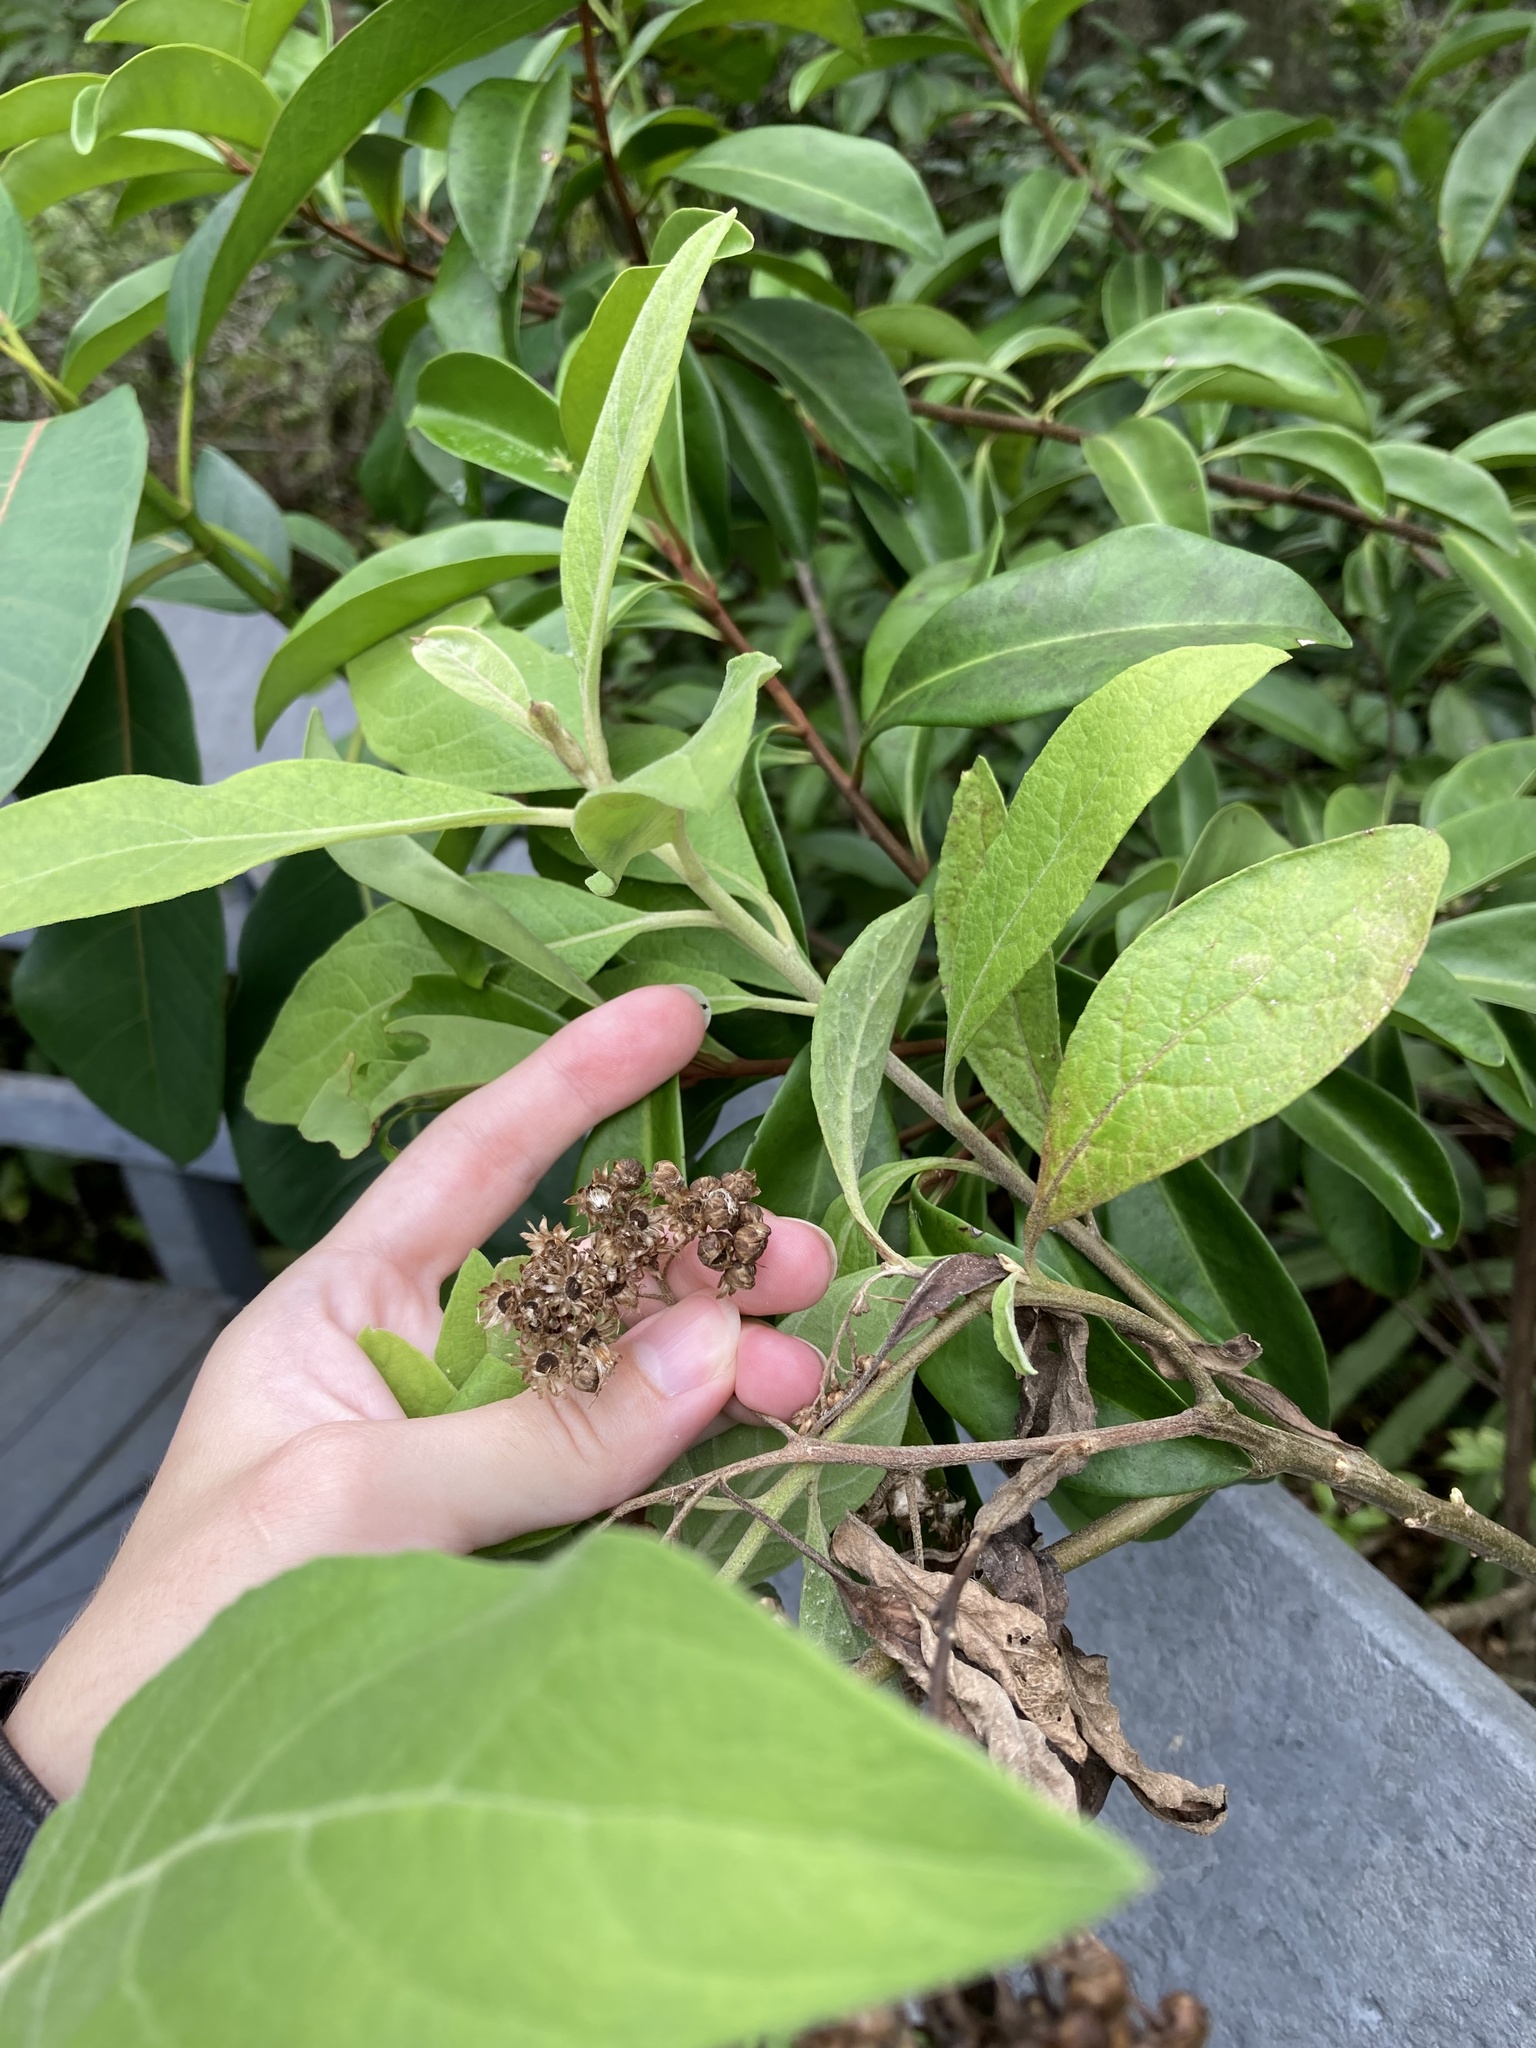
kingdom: Plantae
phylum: Tracheophyta
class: Magnoliopsida
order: Asterales
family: Asteraceae
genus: Pluchea
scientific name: Pluchea carolinensis
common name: Marsh fleabane
